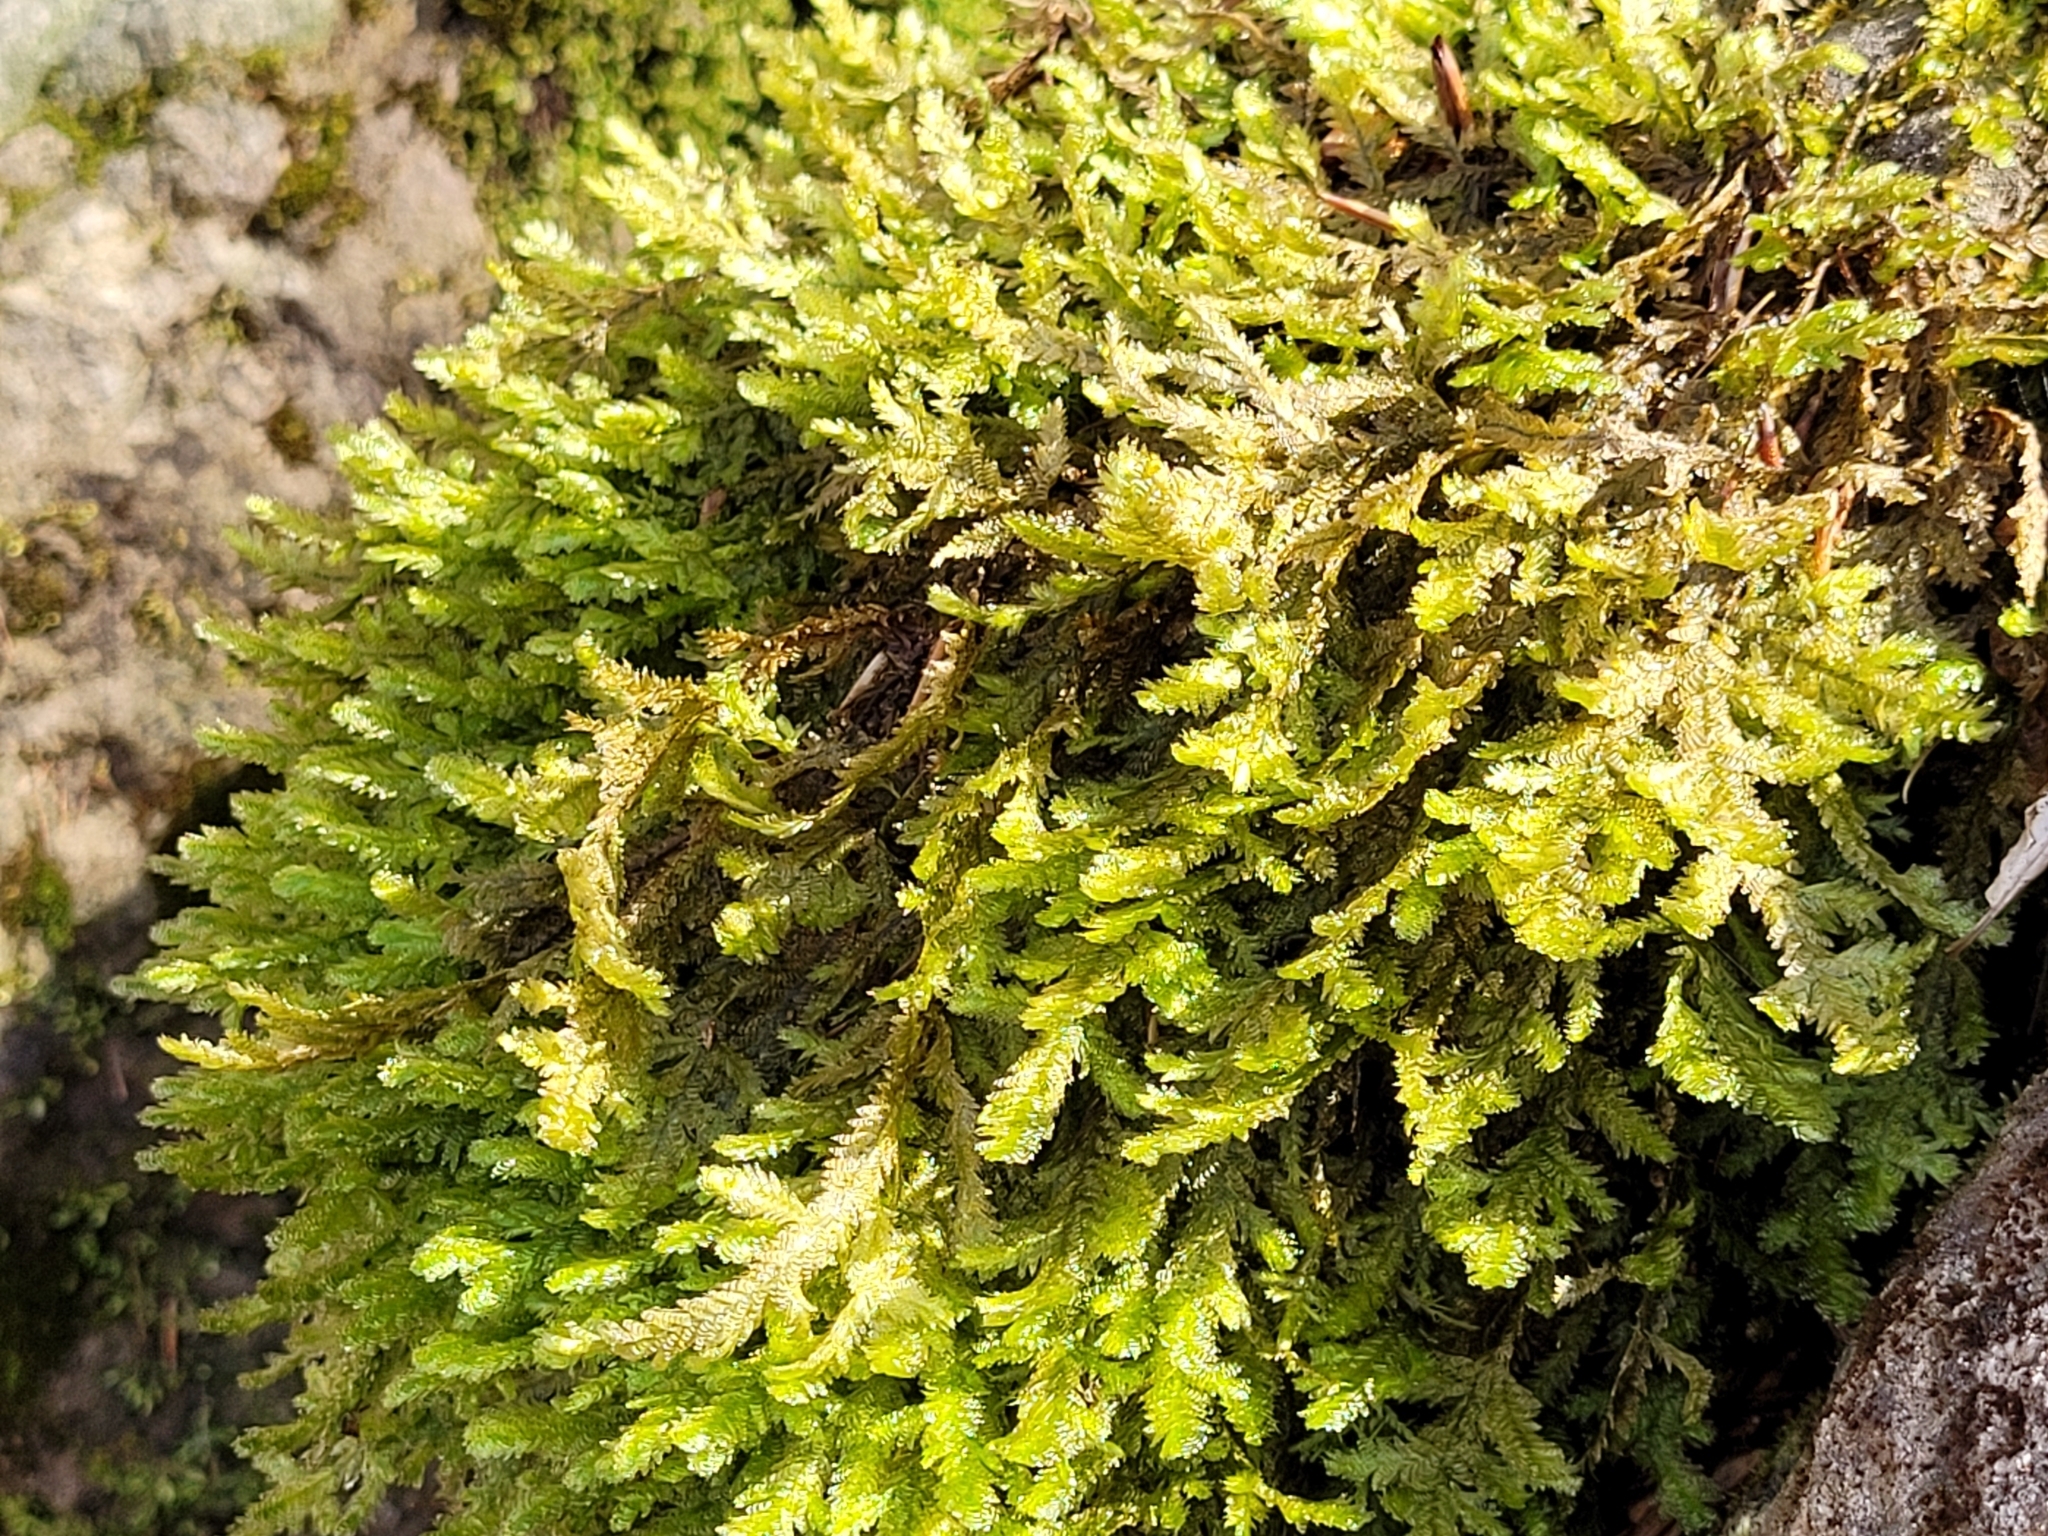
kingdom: Plantae
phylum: Bryophyta
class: Bryopsida
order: Hypnales
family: Neckeraceae
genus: Exsertotheca
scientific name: Exsertotheca crispa
